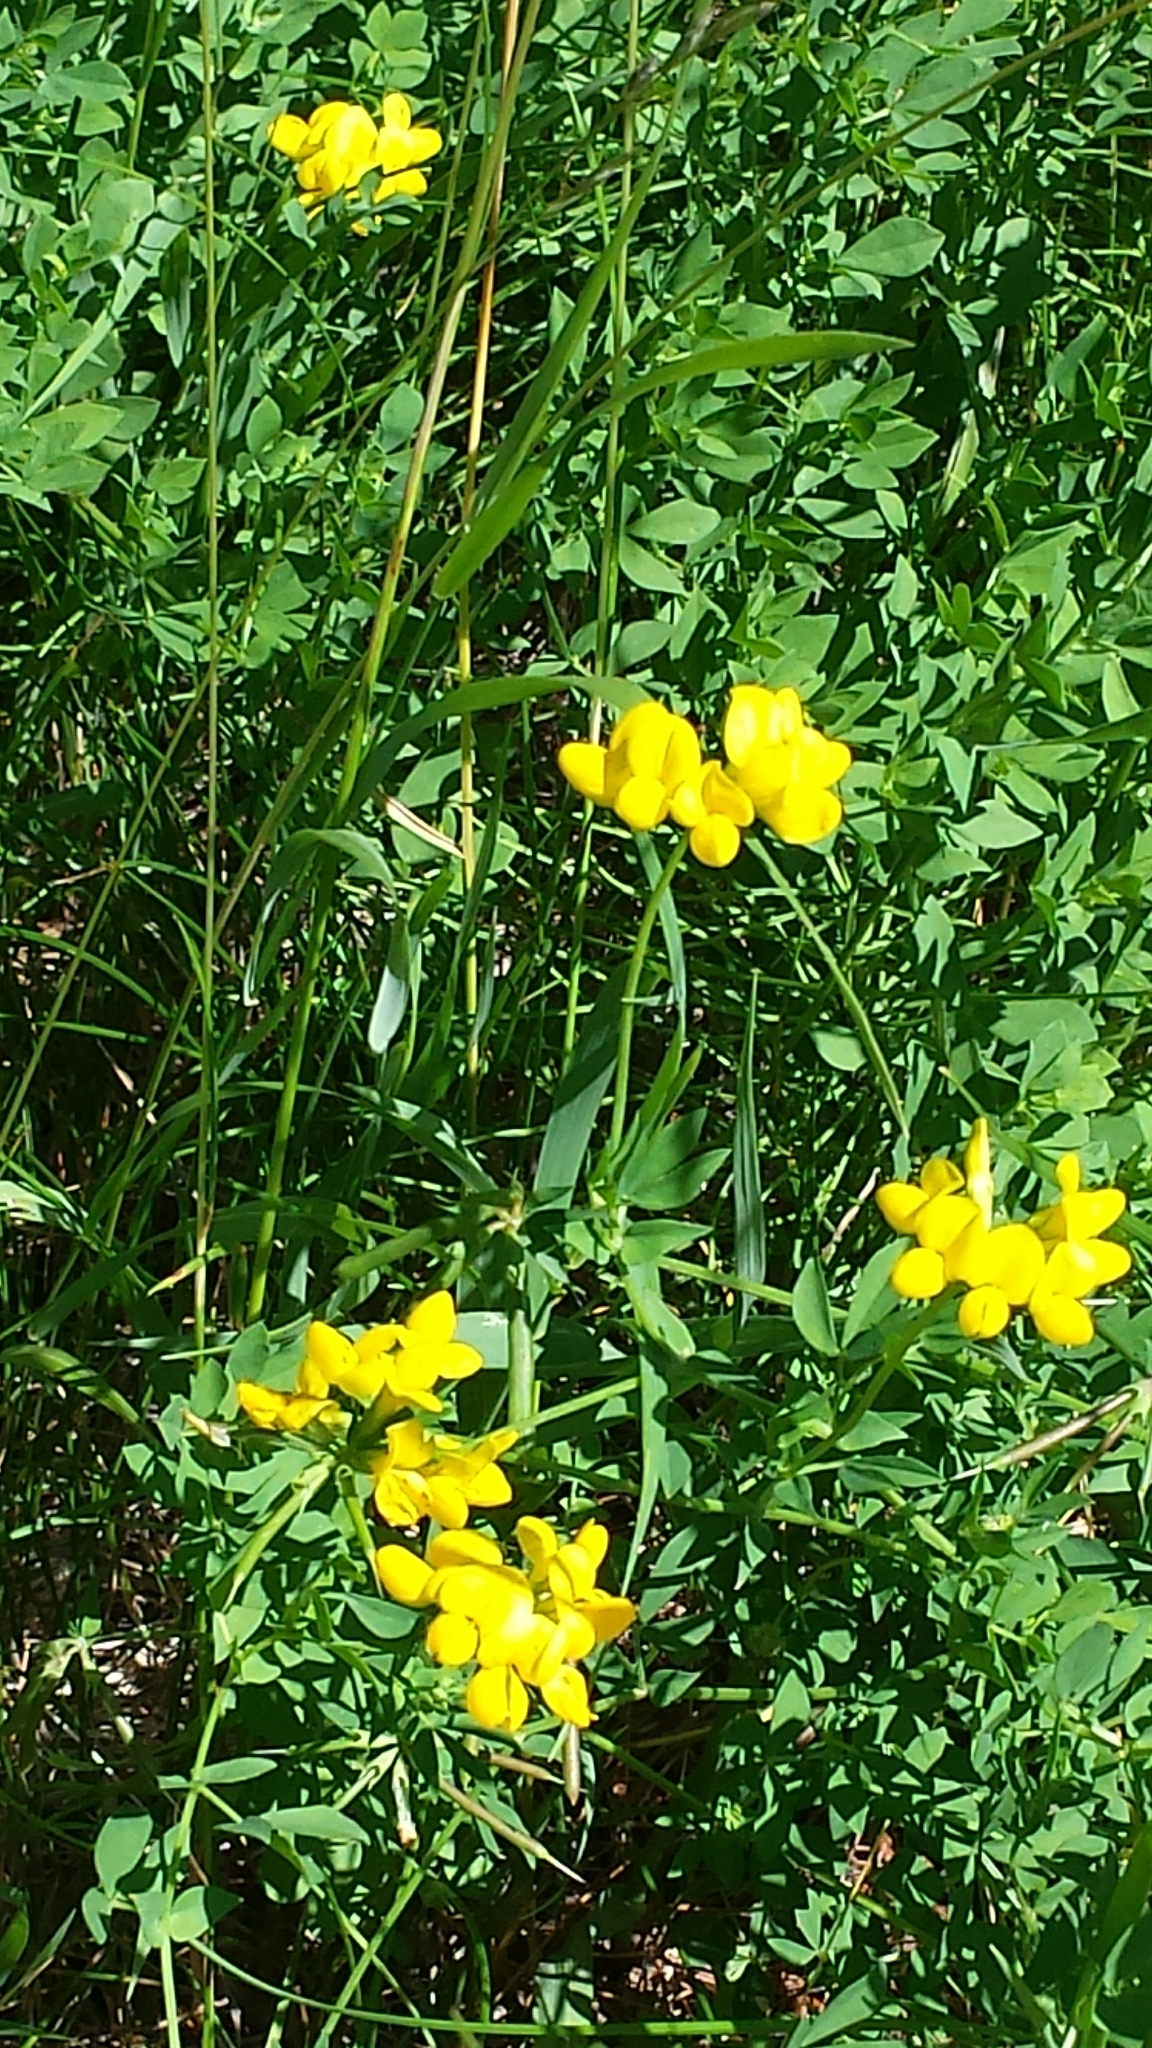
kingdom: Plantae
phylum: Tracheophyta
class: Magnoliopsida
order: Fabales
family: Fabaceae
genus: Lotus
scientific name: Lotus corniculatus
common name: Common bird's-foot-trefoil
